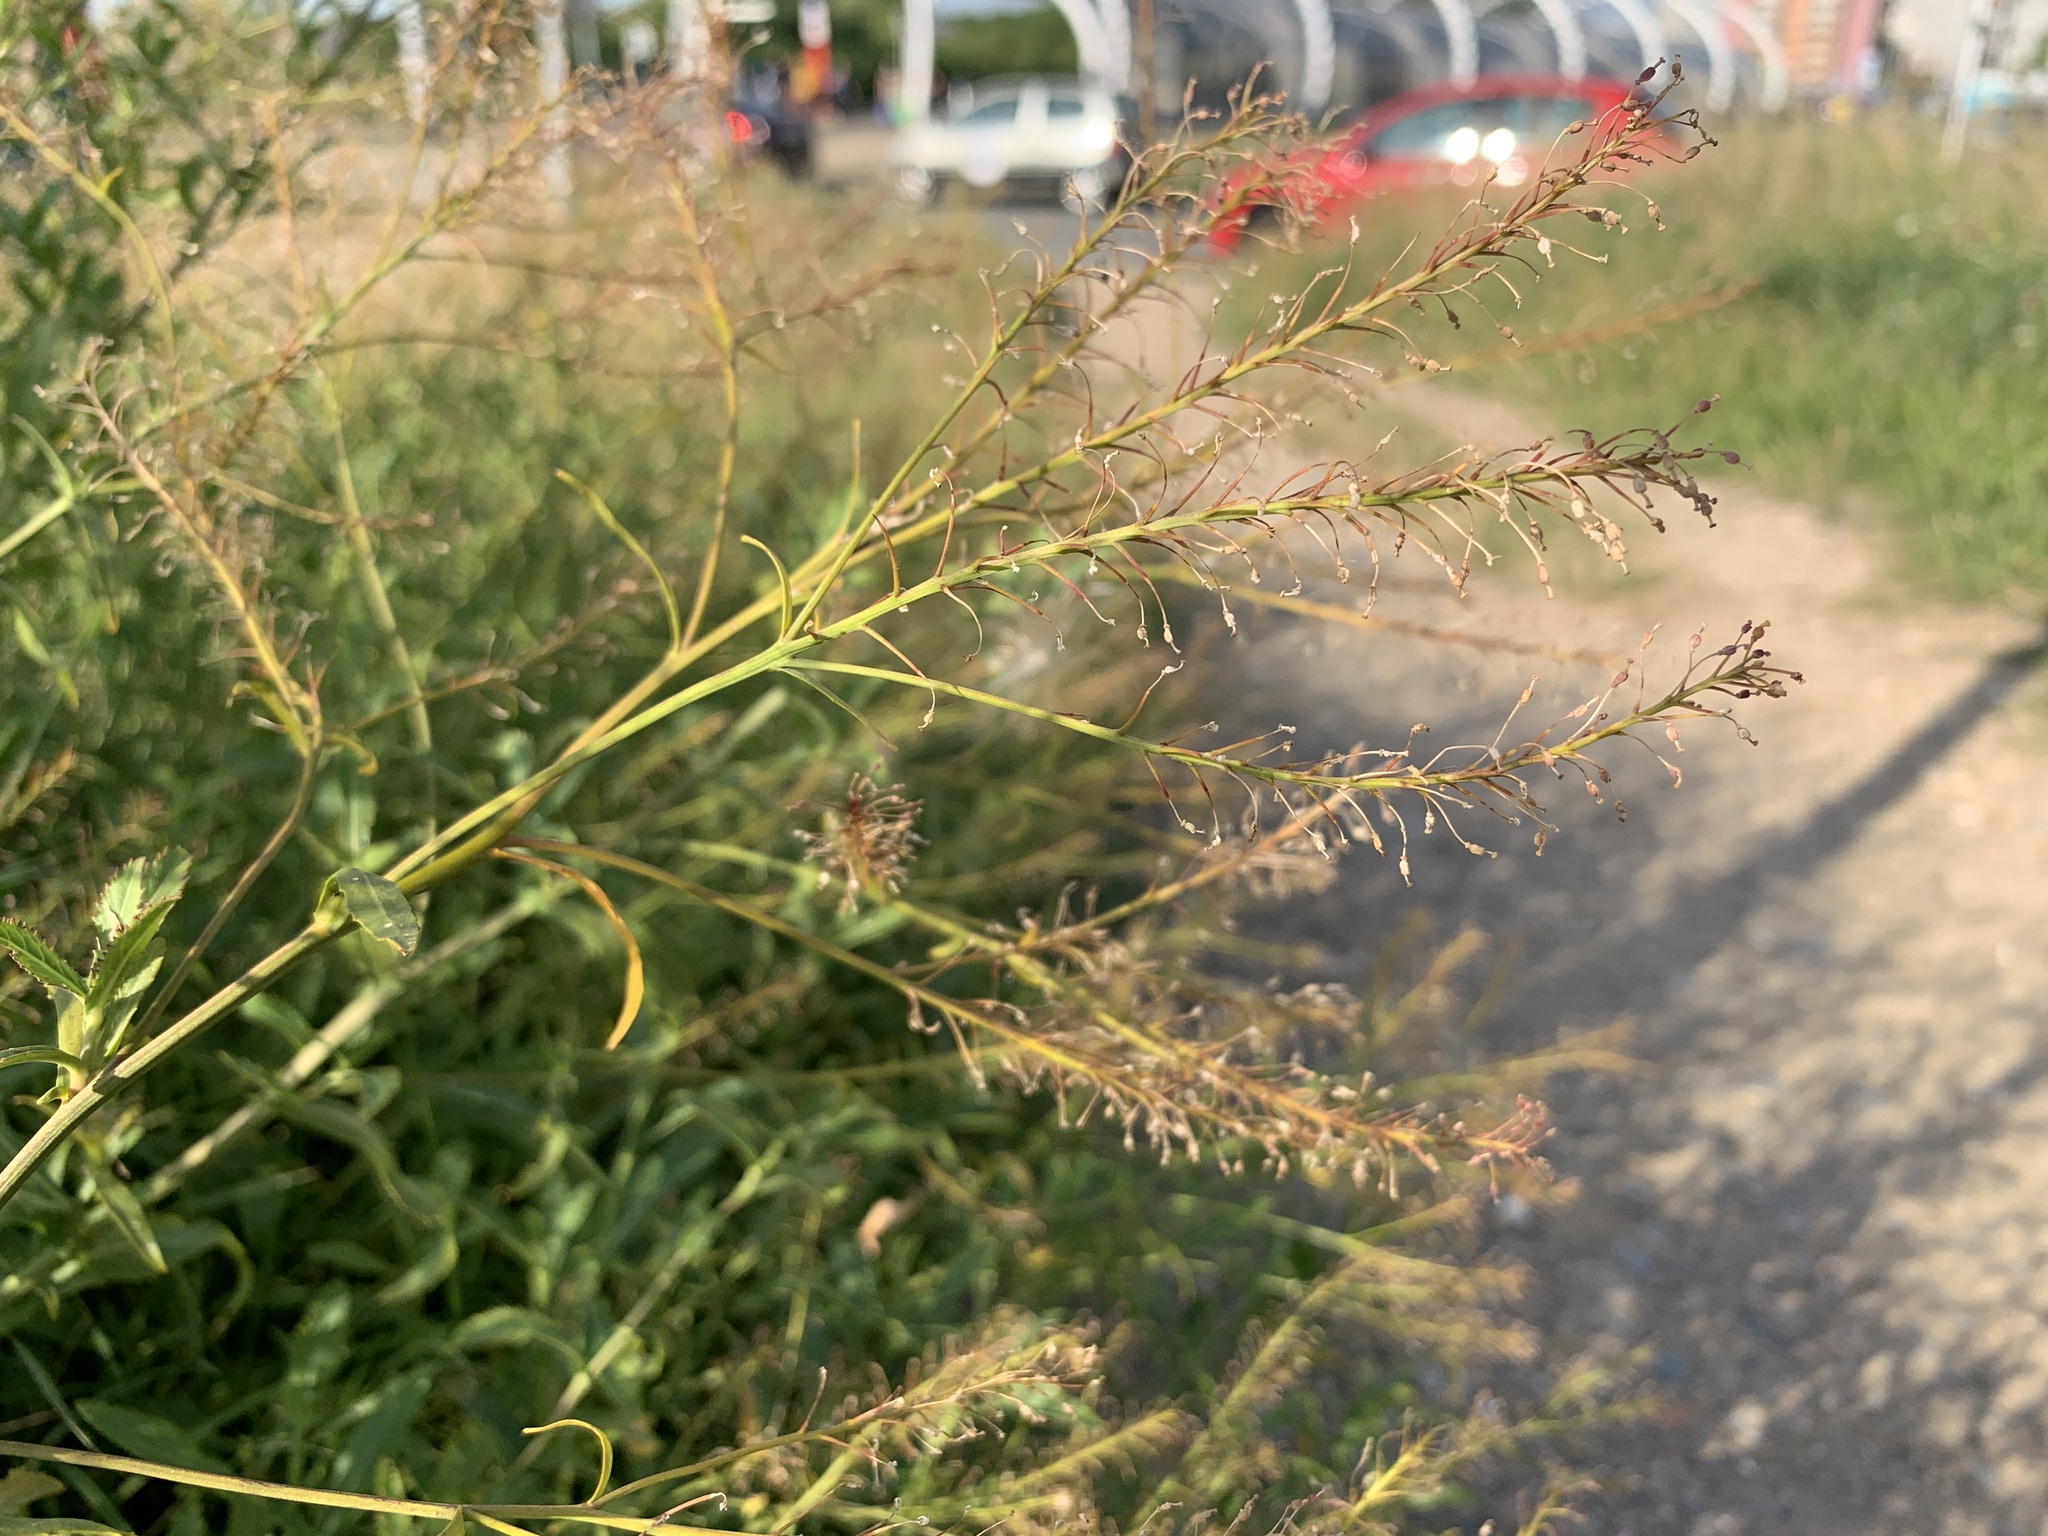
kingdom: Plantae
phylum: Tracheophyta
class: Magnoliopsida
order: Brassicales
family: Brassicaceae
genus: Rorippa
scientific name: Rorippa austriaca
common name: Austrian yellow-cress
